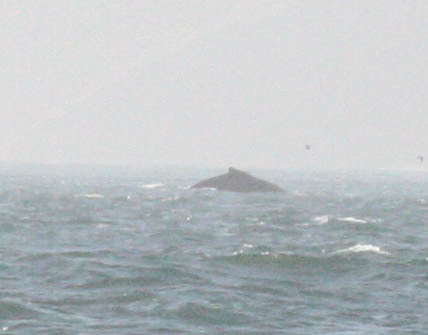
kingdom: Animalia
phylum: Chordata
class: Mammalia
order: Cetacea
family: Balaenopteridae
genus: Megaptera
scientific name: Megaptera novaeangliae
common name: Humpback whale
